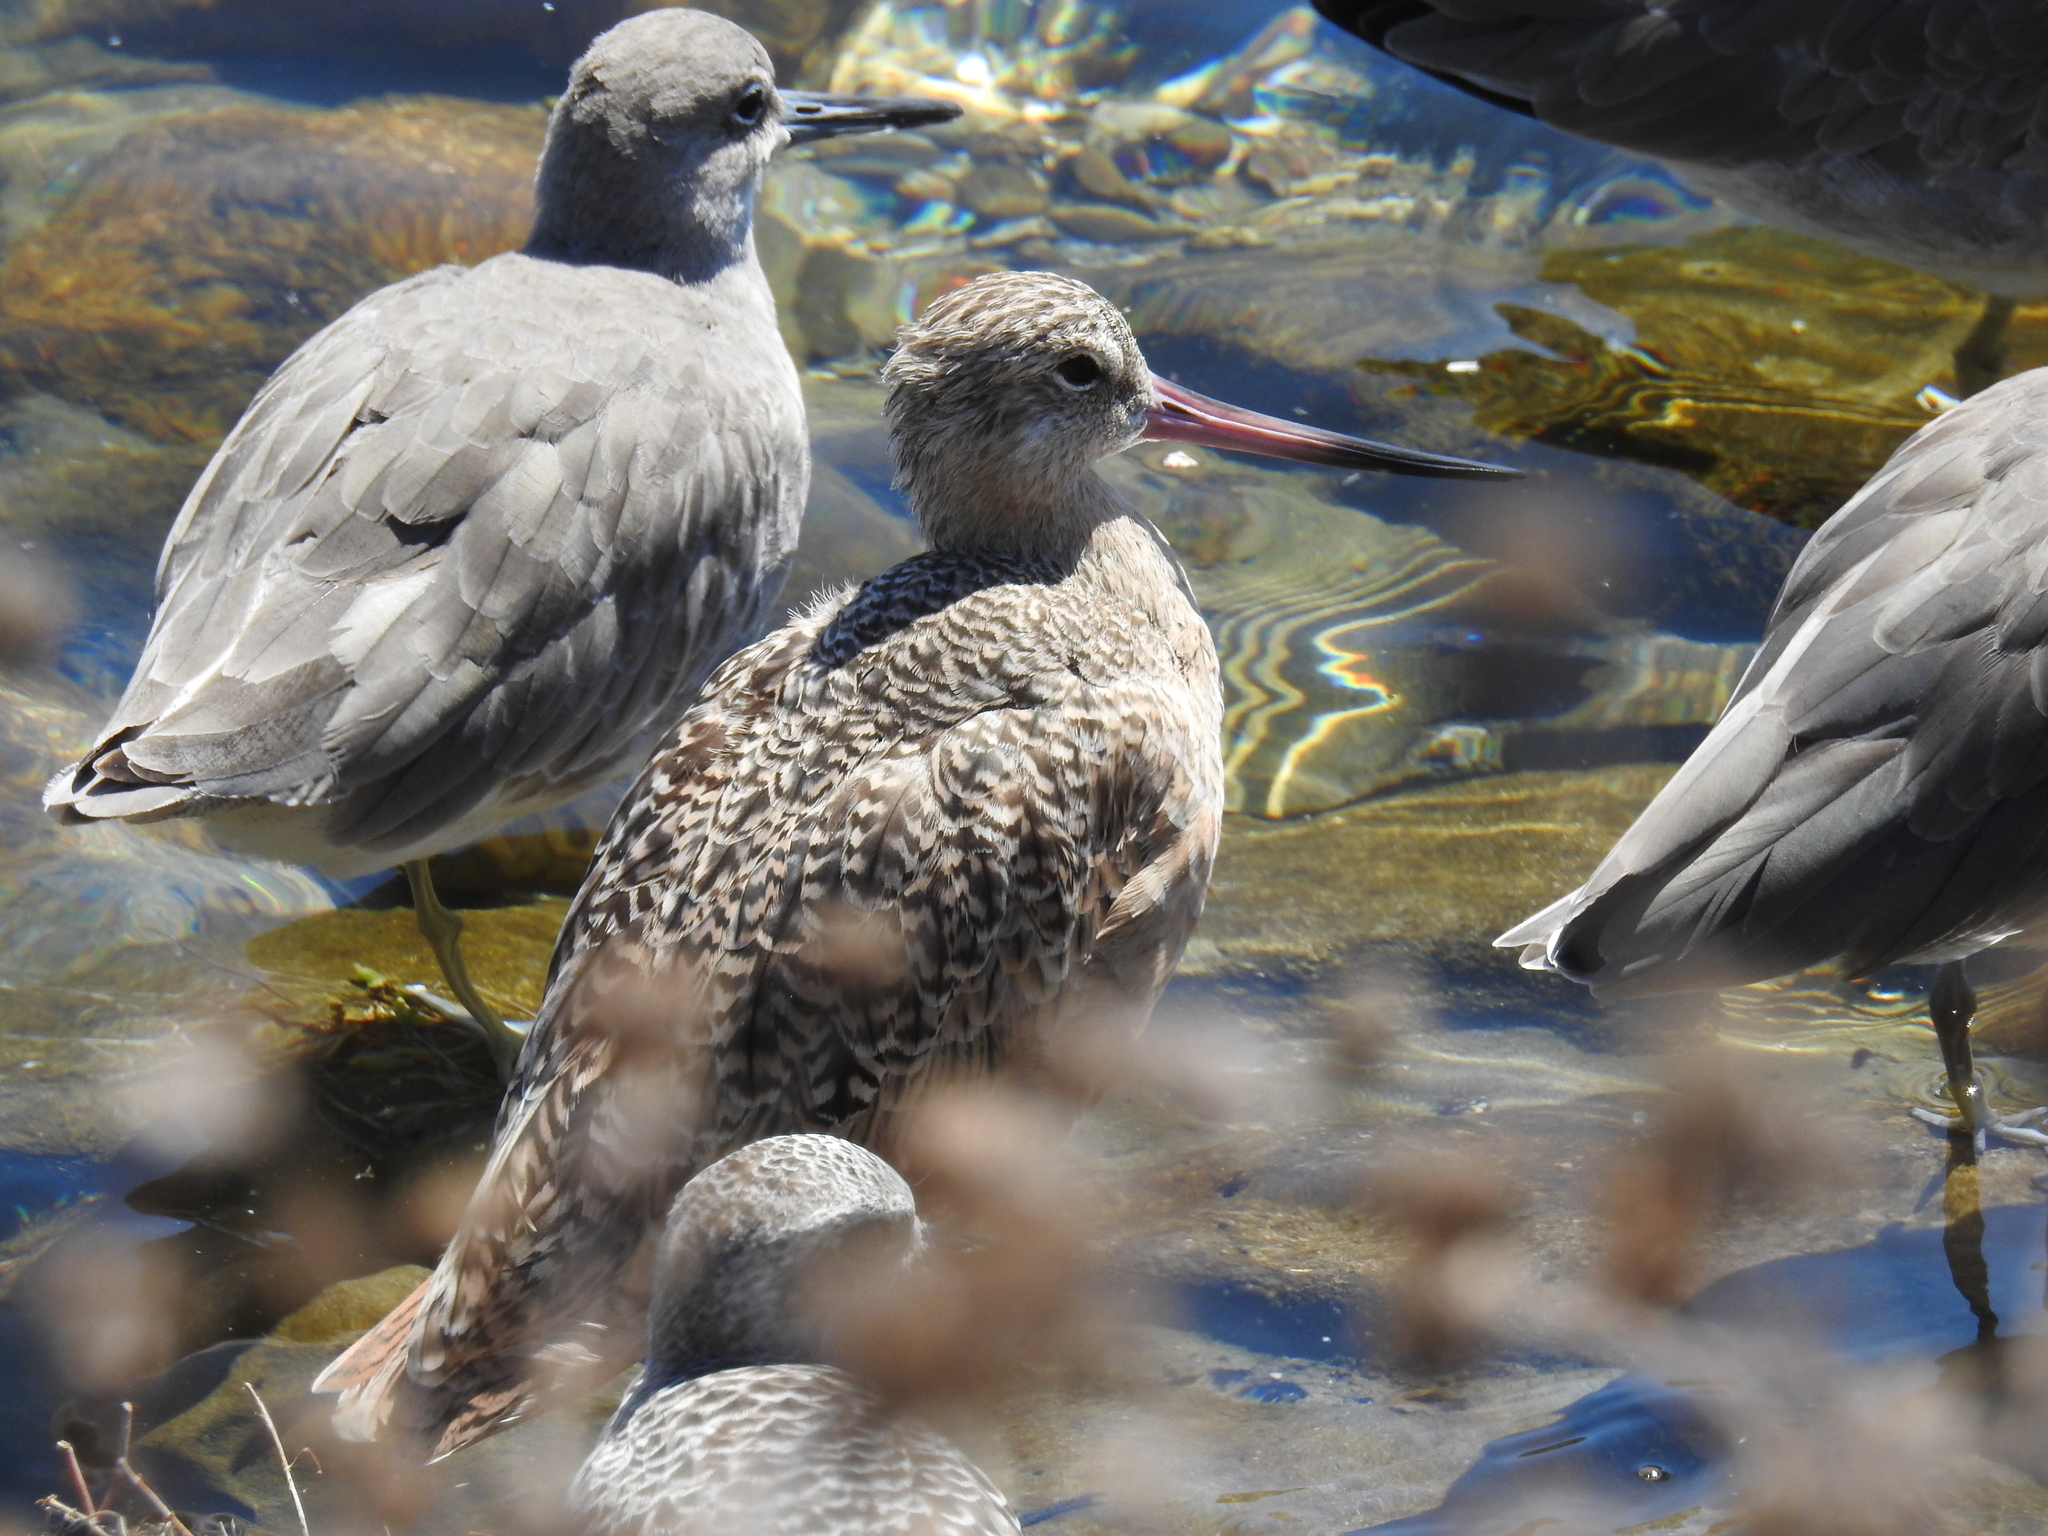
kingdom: Animalia
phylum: Chordata
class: Aves
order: Charadriiformes
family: Scolopacidae
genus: Limosa
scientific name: Limosa fedoa
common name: Marbled godwit
